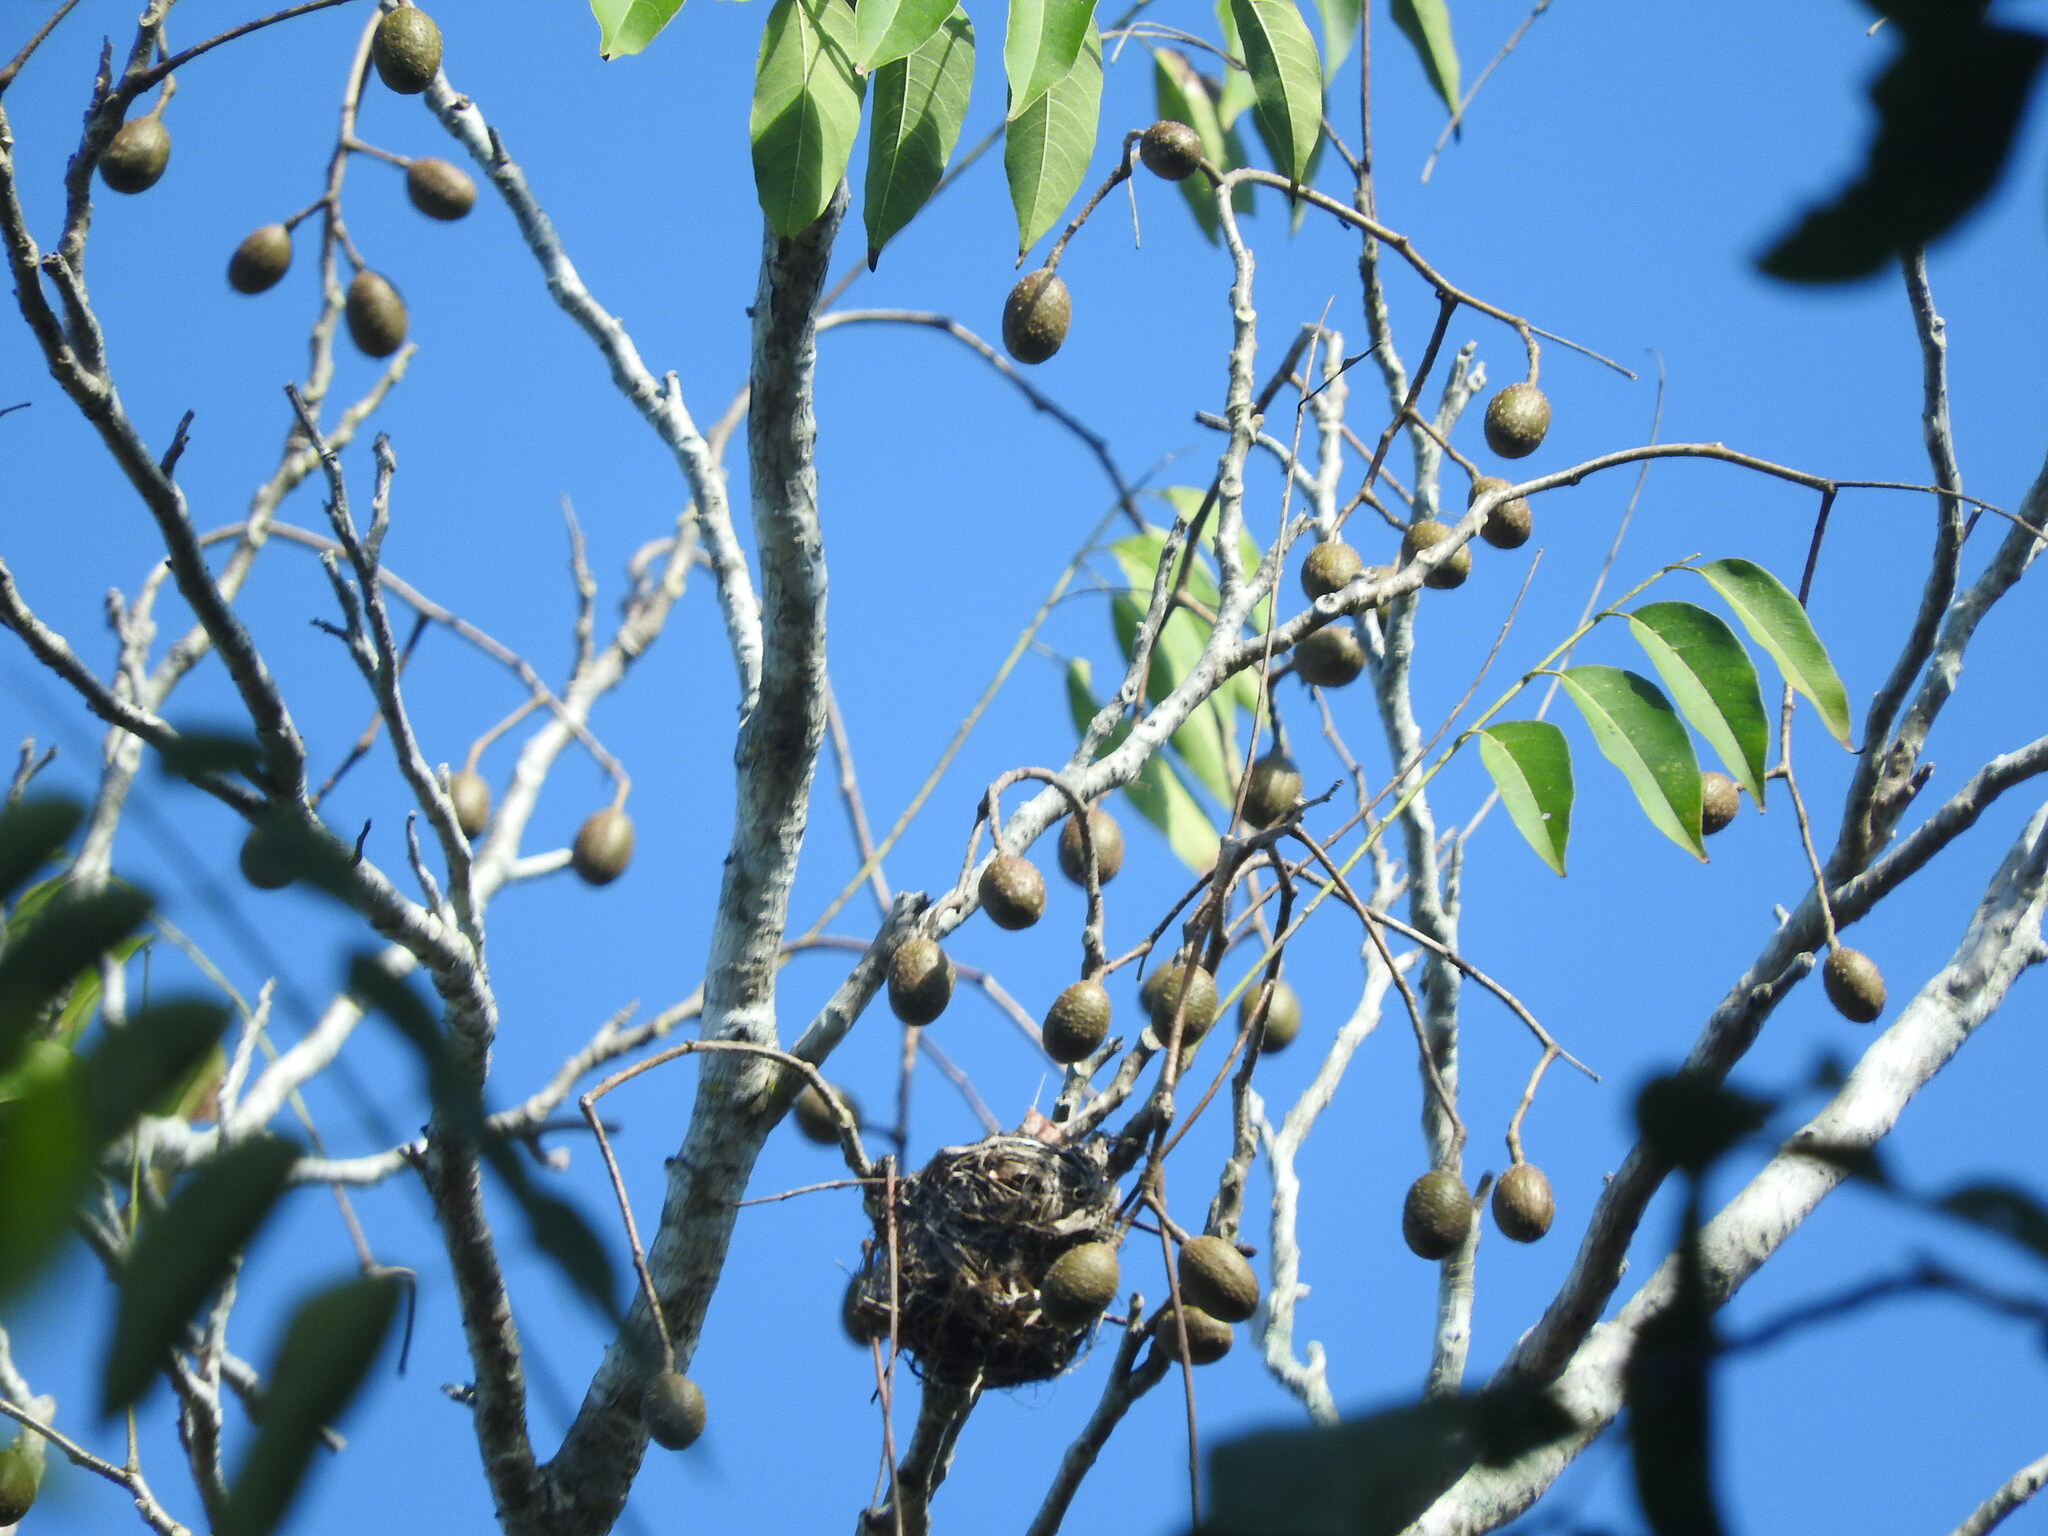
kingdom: Plantae
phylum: Tracheophyta
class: Magnoliopsida
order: Sapindales
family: Meliaceae
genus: Cedrela
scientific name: Cedrela odorata
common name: Red cedar
